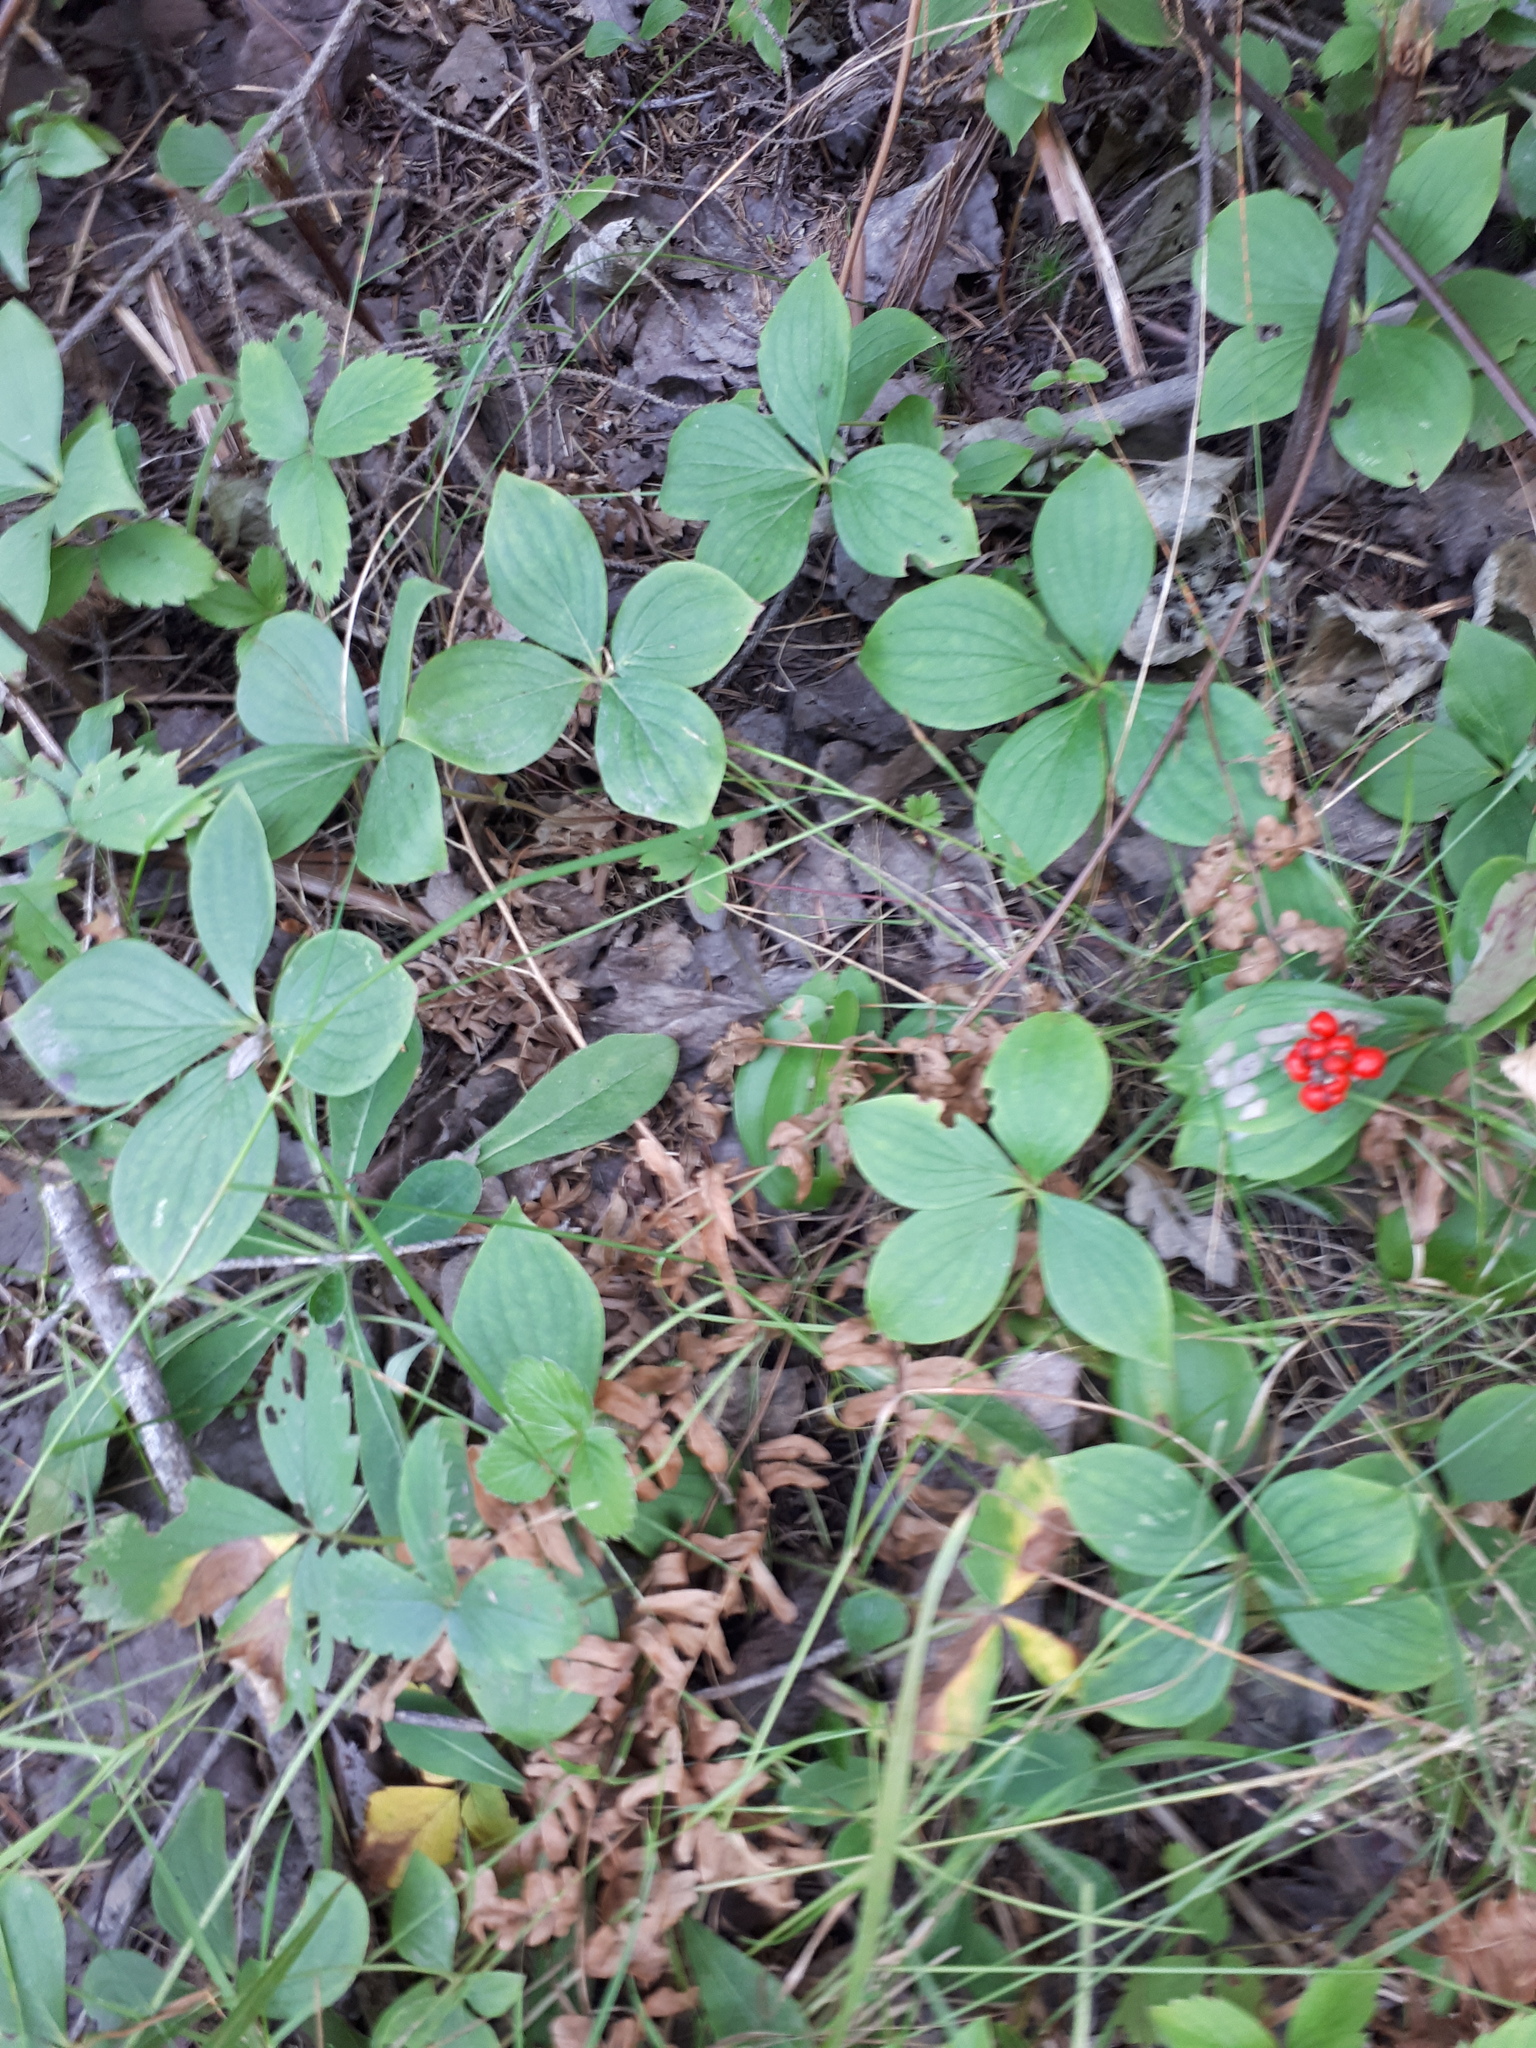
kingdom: Plantae
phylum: Tracheophyta
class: Magnoliopsida
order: Cornales
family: Cornaceae
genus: Cornus
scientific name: Cornus canadensis
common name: Creeping dogwood
